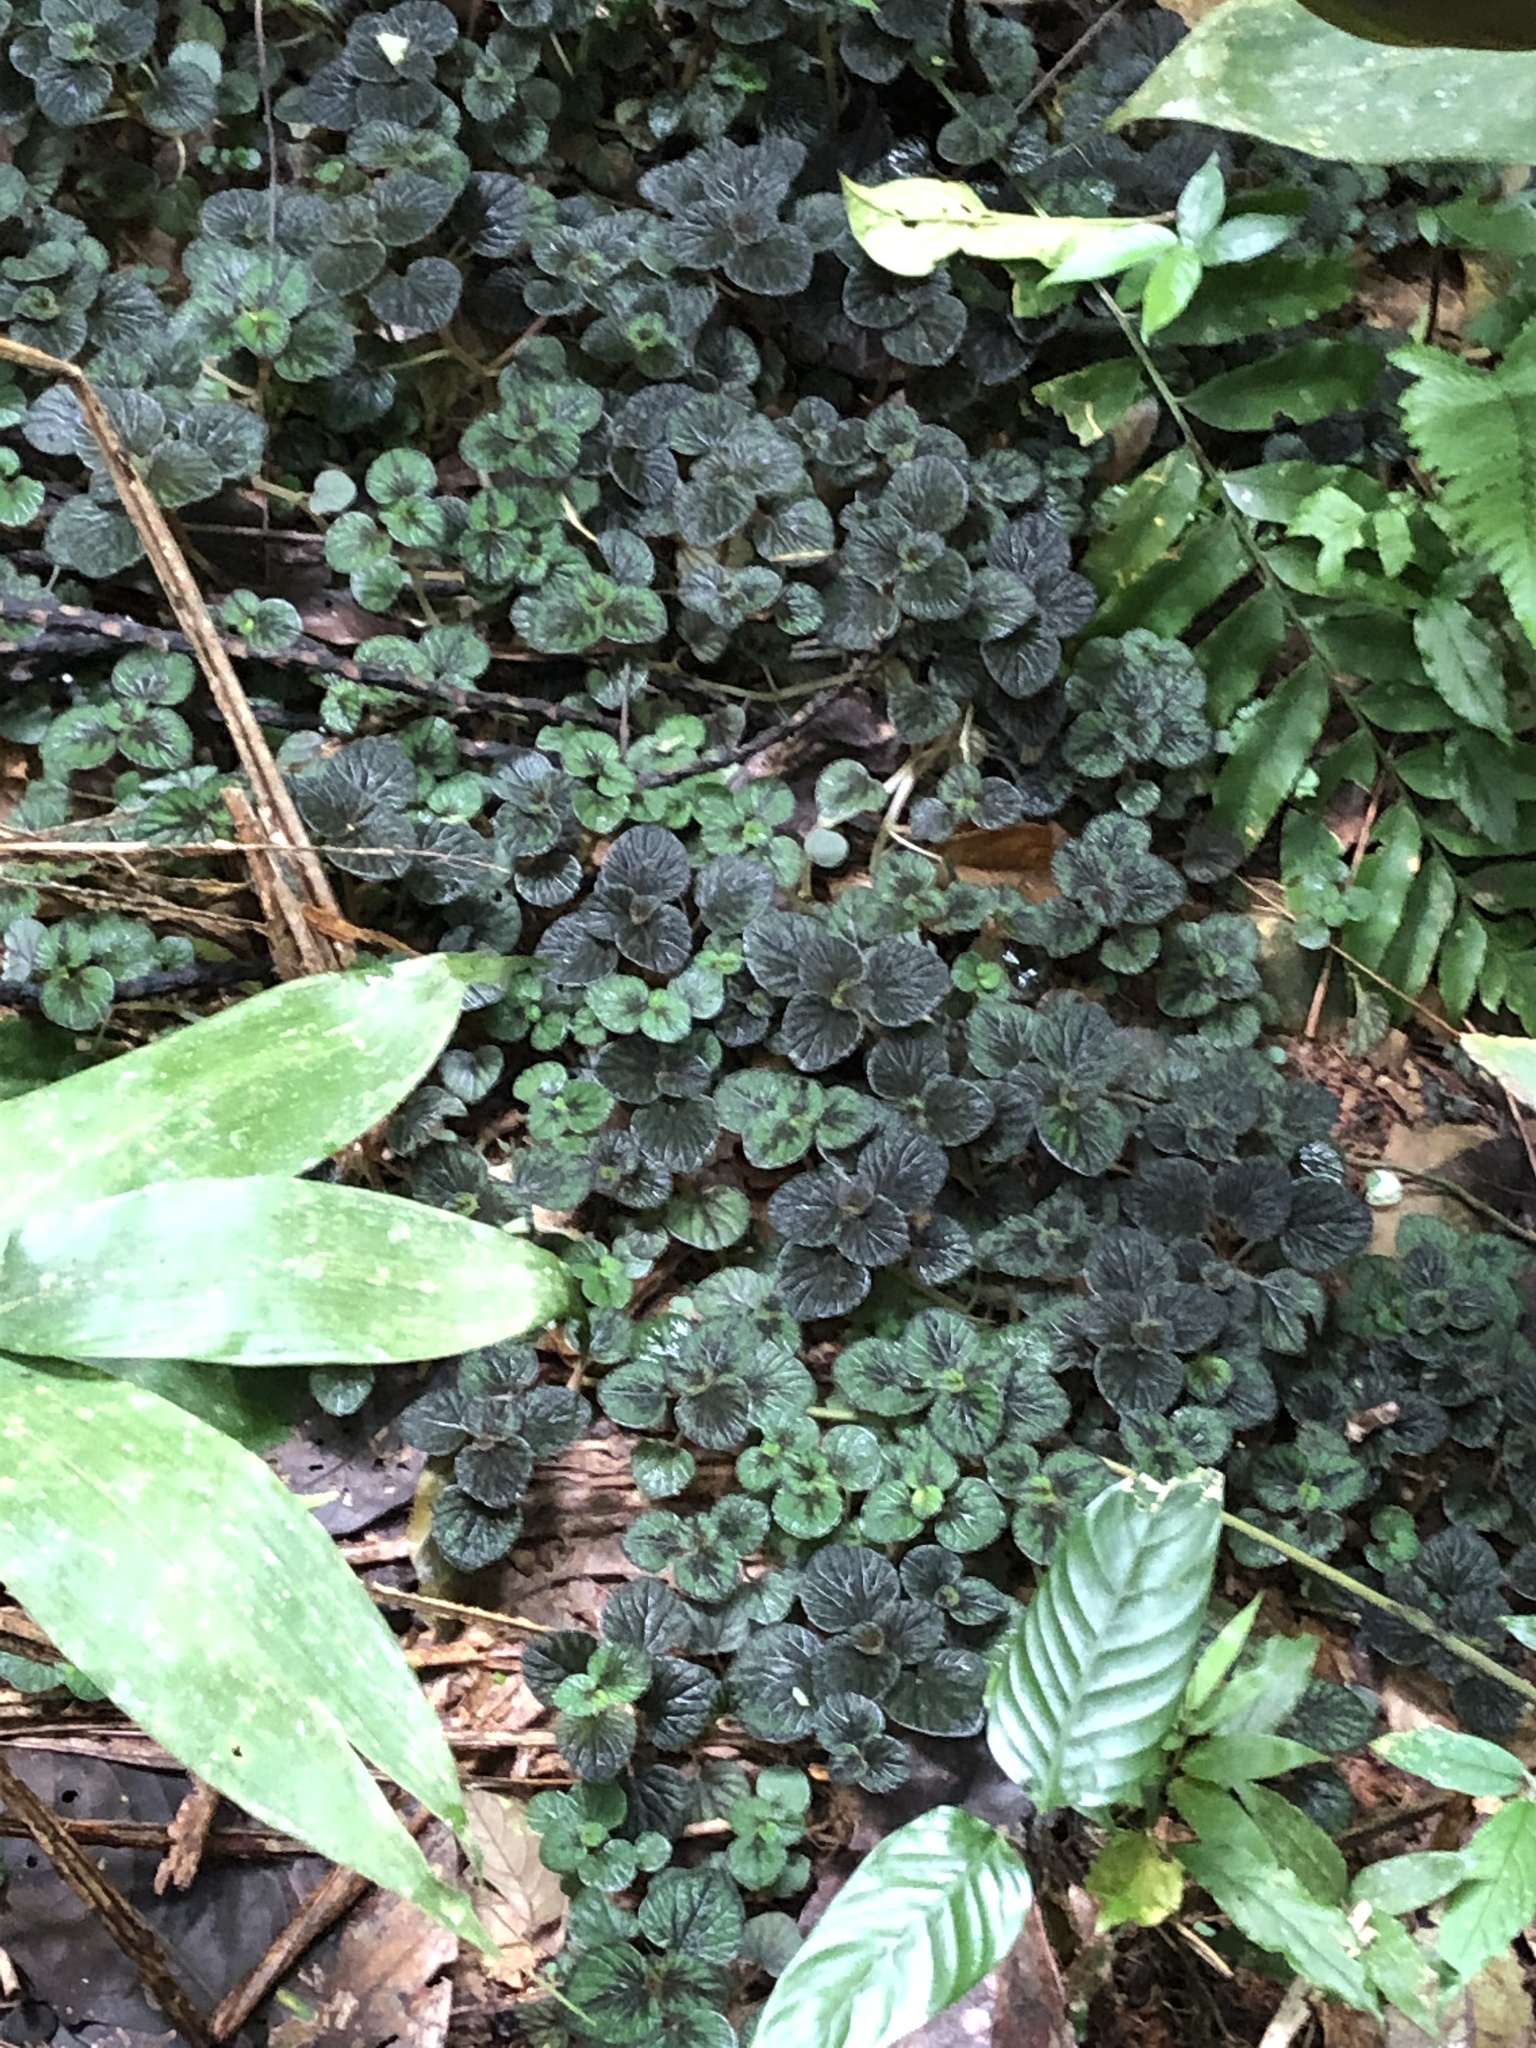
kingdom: Plantae
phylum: Tracheophyta
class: Magnoliopsida
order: Piperales
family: Piperaceae
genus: Peperomia
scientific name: Peperomia spruceana
